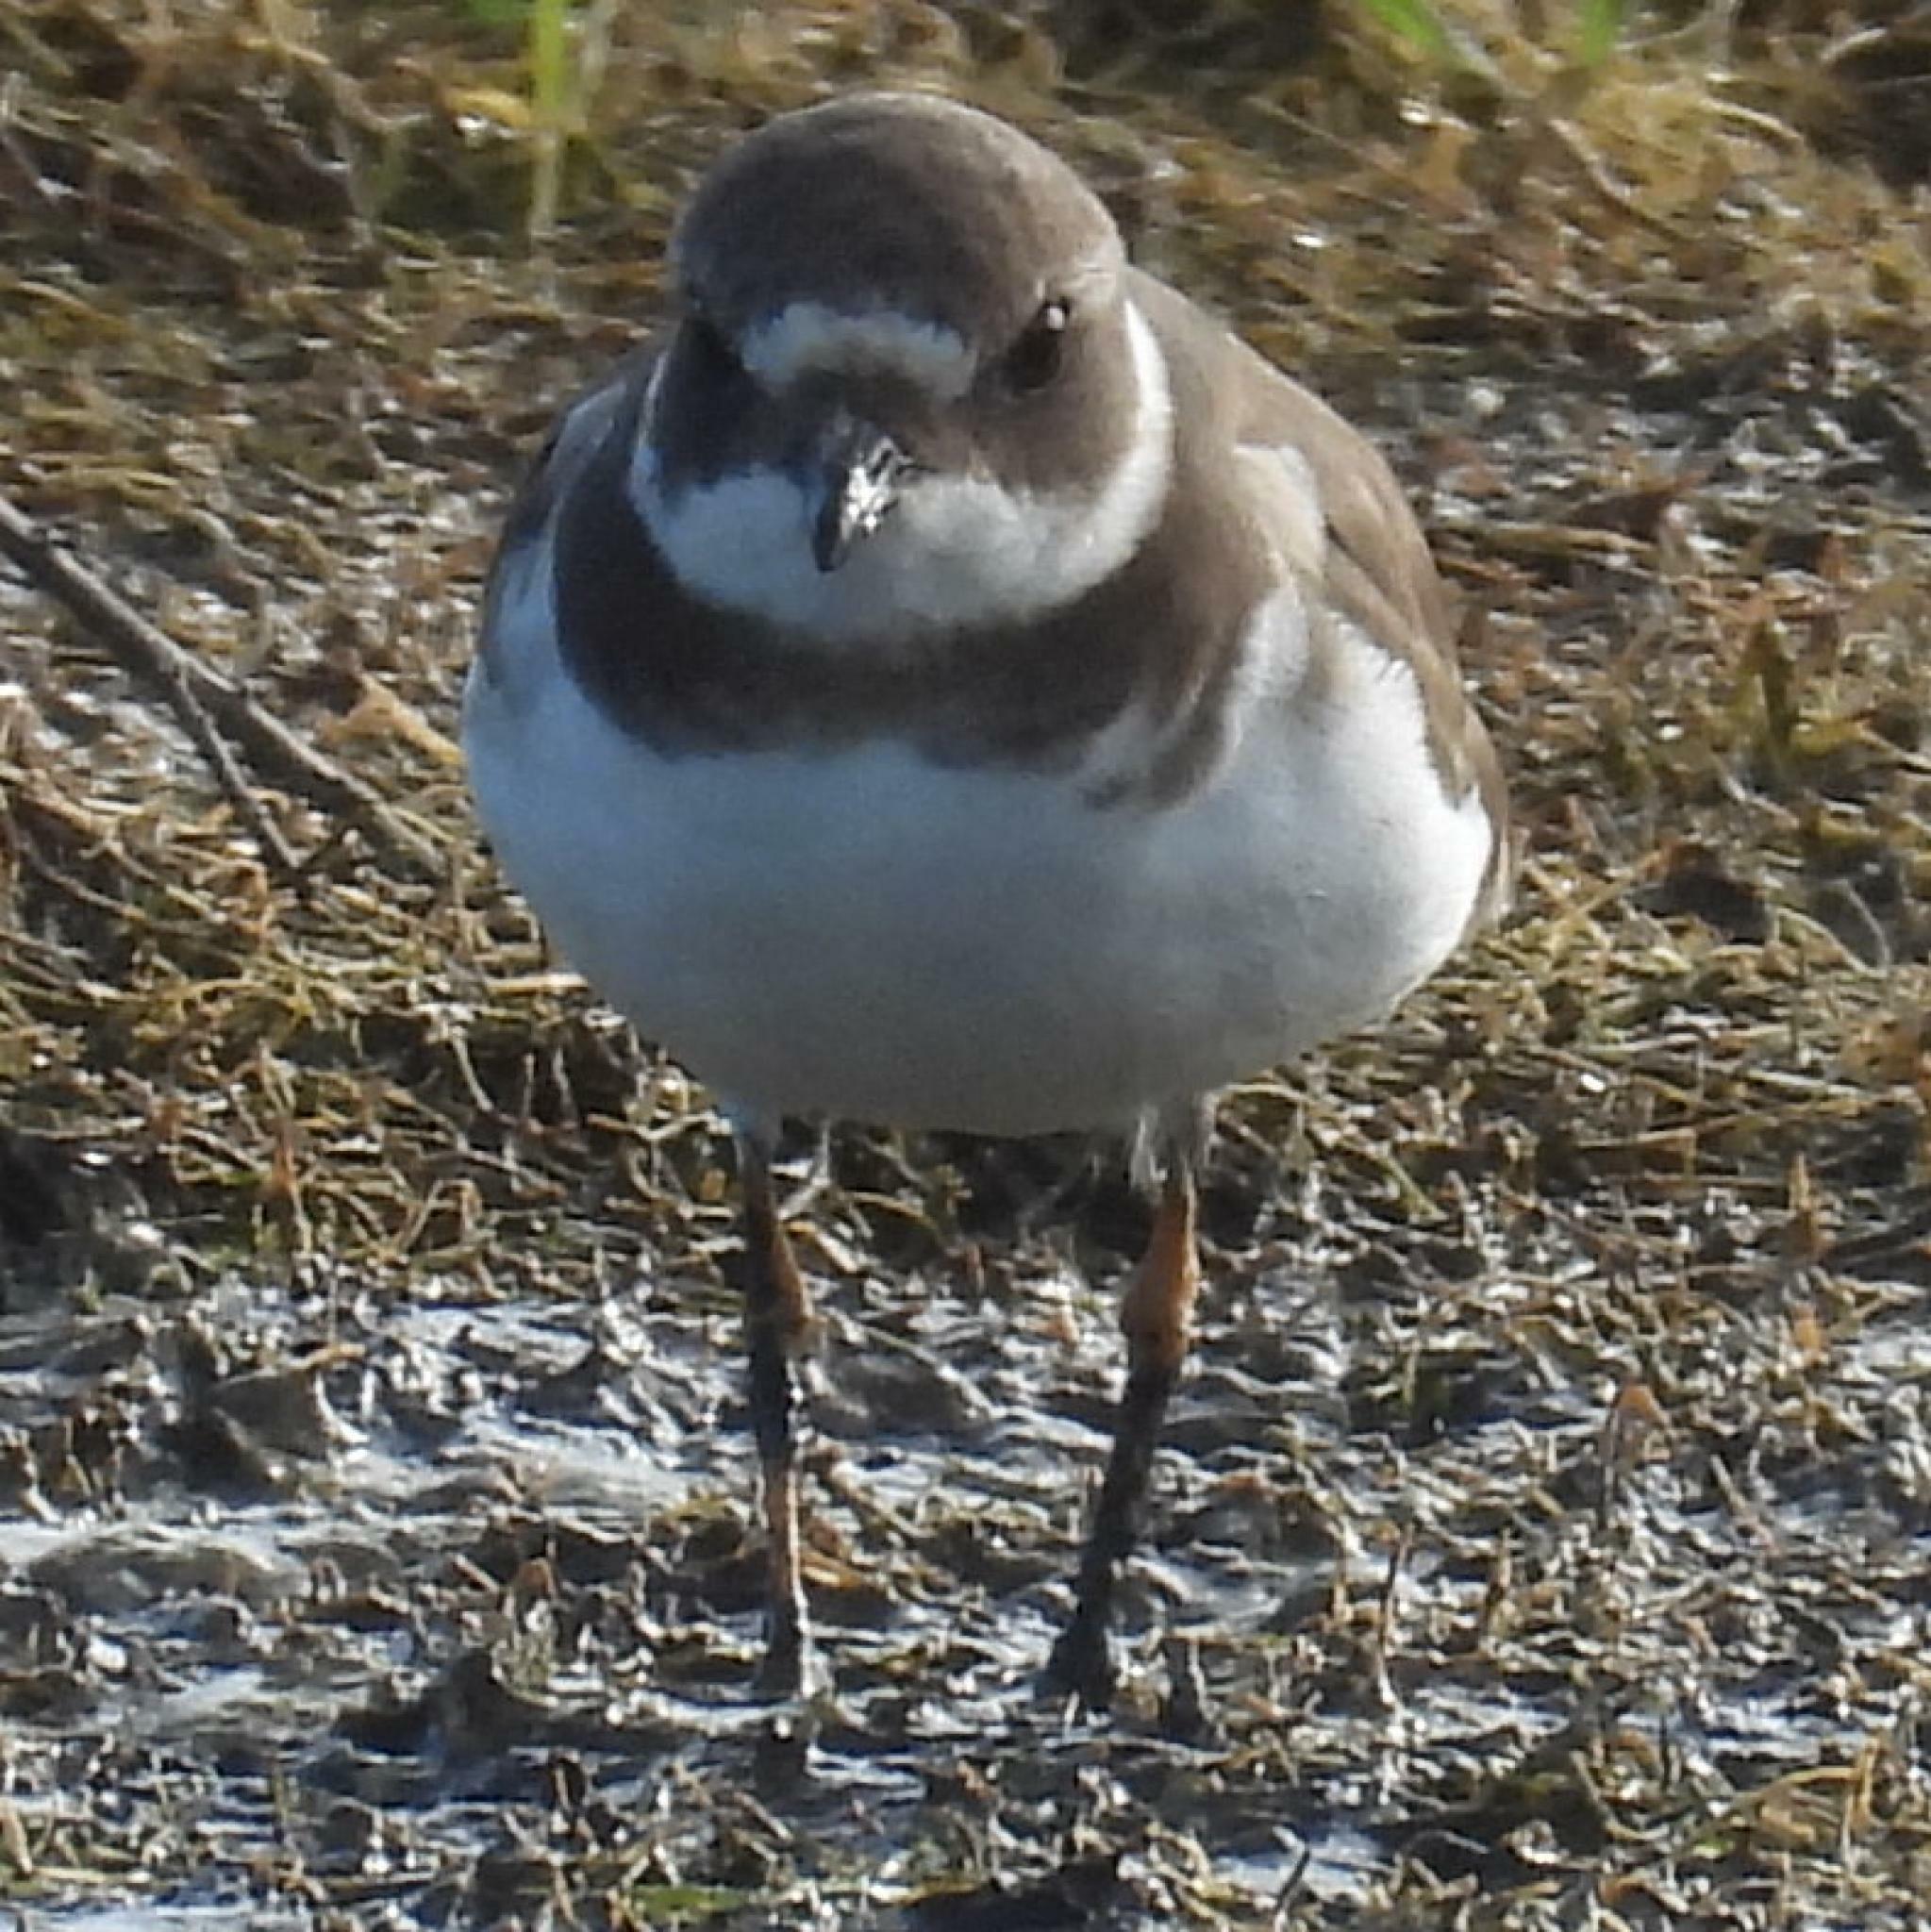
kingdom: Animalia
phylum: Chordata
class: Aves
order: Charadriiformes
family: Charadriidae
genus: Charadrius
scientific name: Charadrius hiaticula
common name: Common ringed plover
